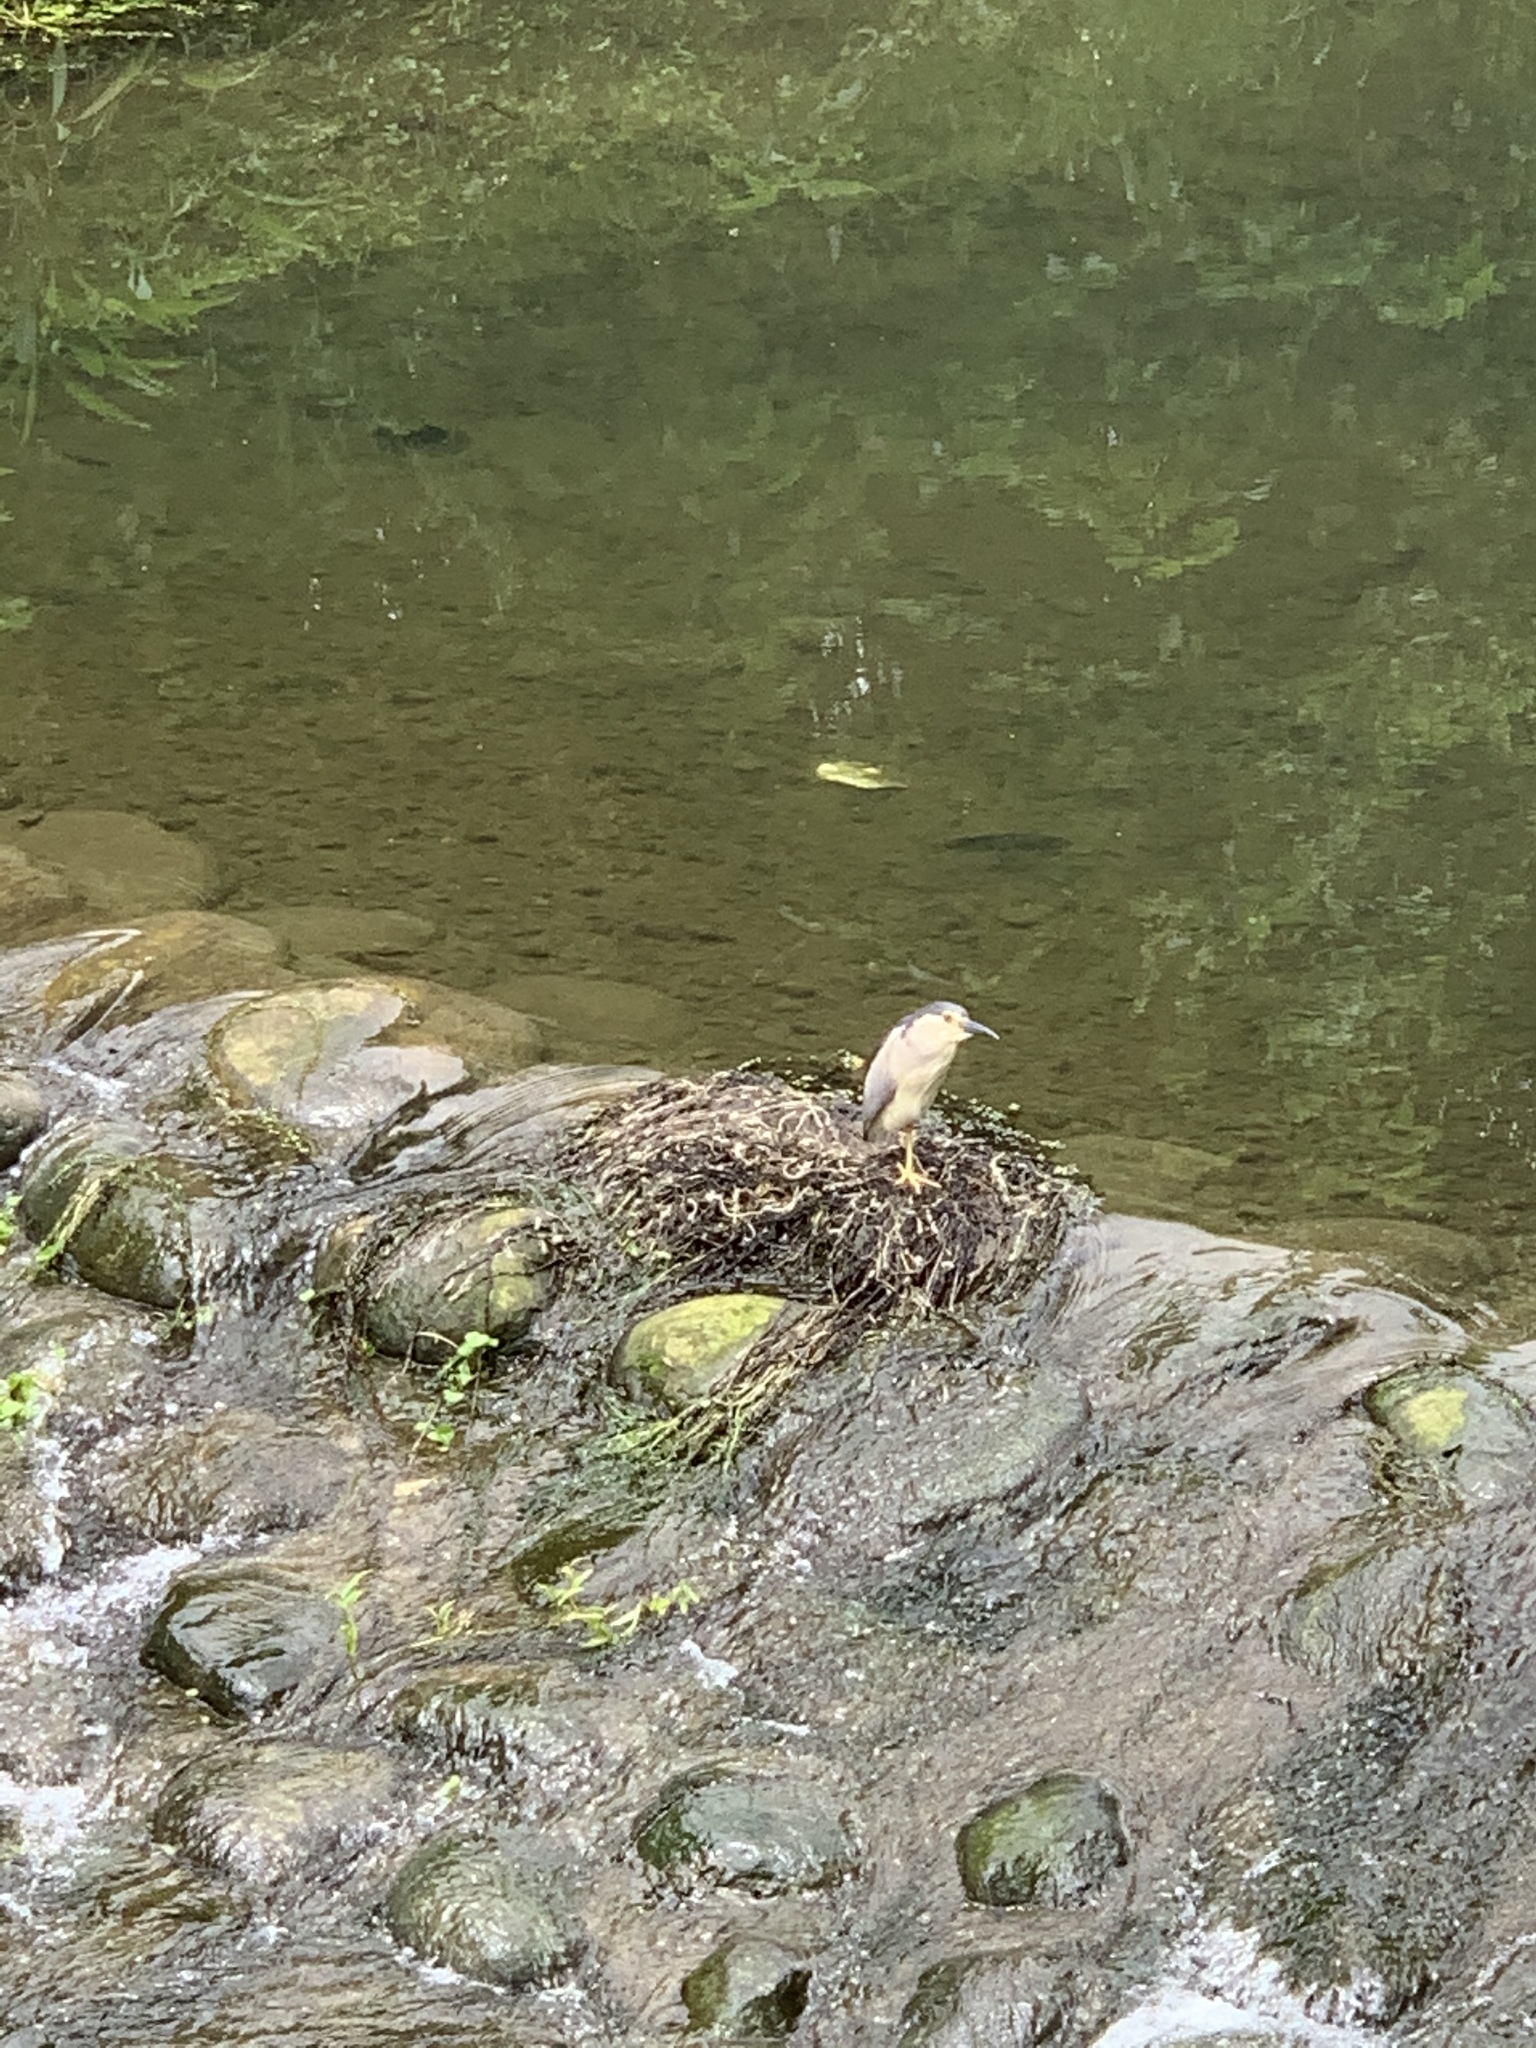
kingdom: Animalia
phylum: Chordata
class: Aves
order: Pelecaniformes
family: Ardeidae
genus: Nycticorax
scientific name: Nycticorax nycticorax
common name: Black-crowned night heron
